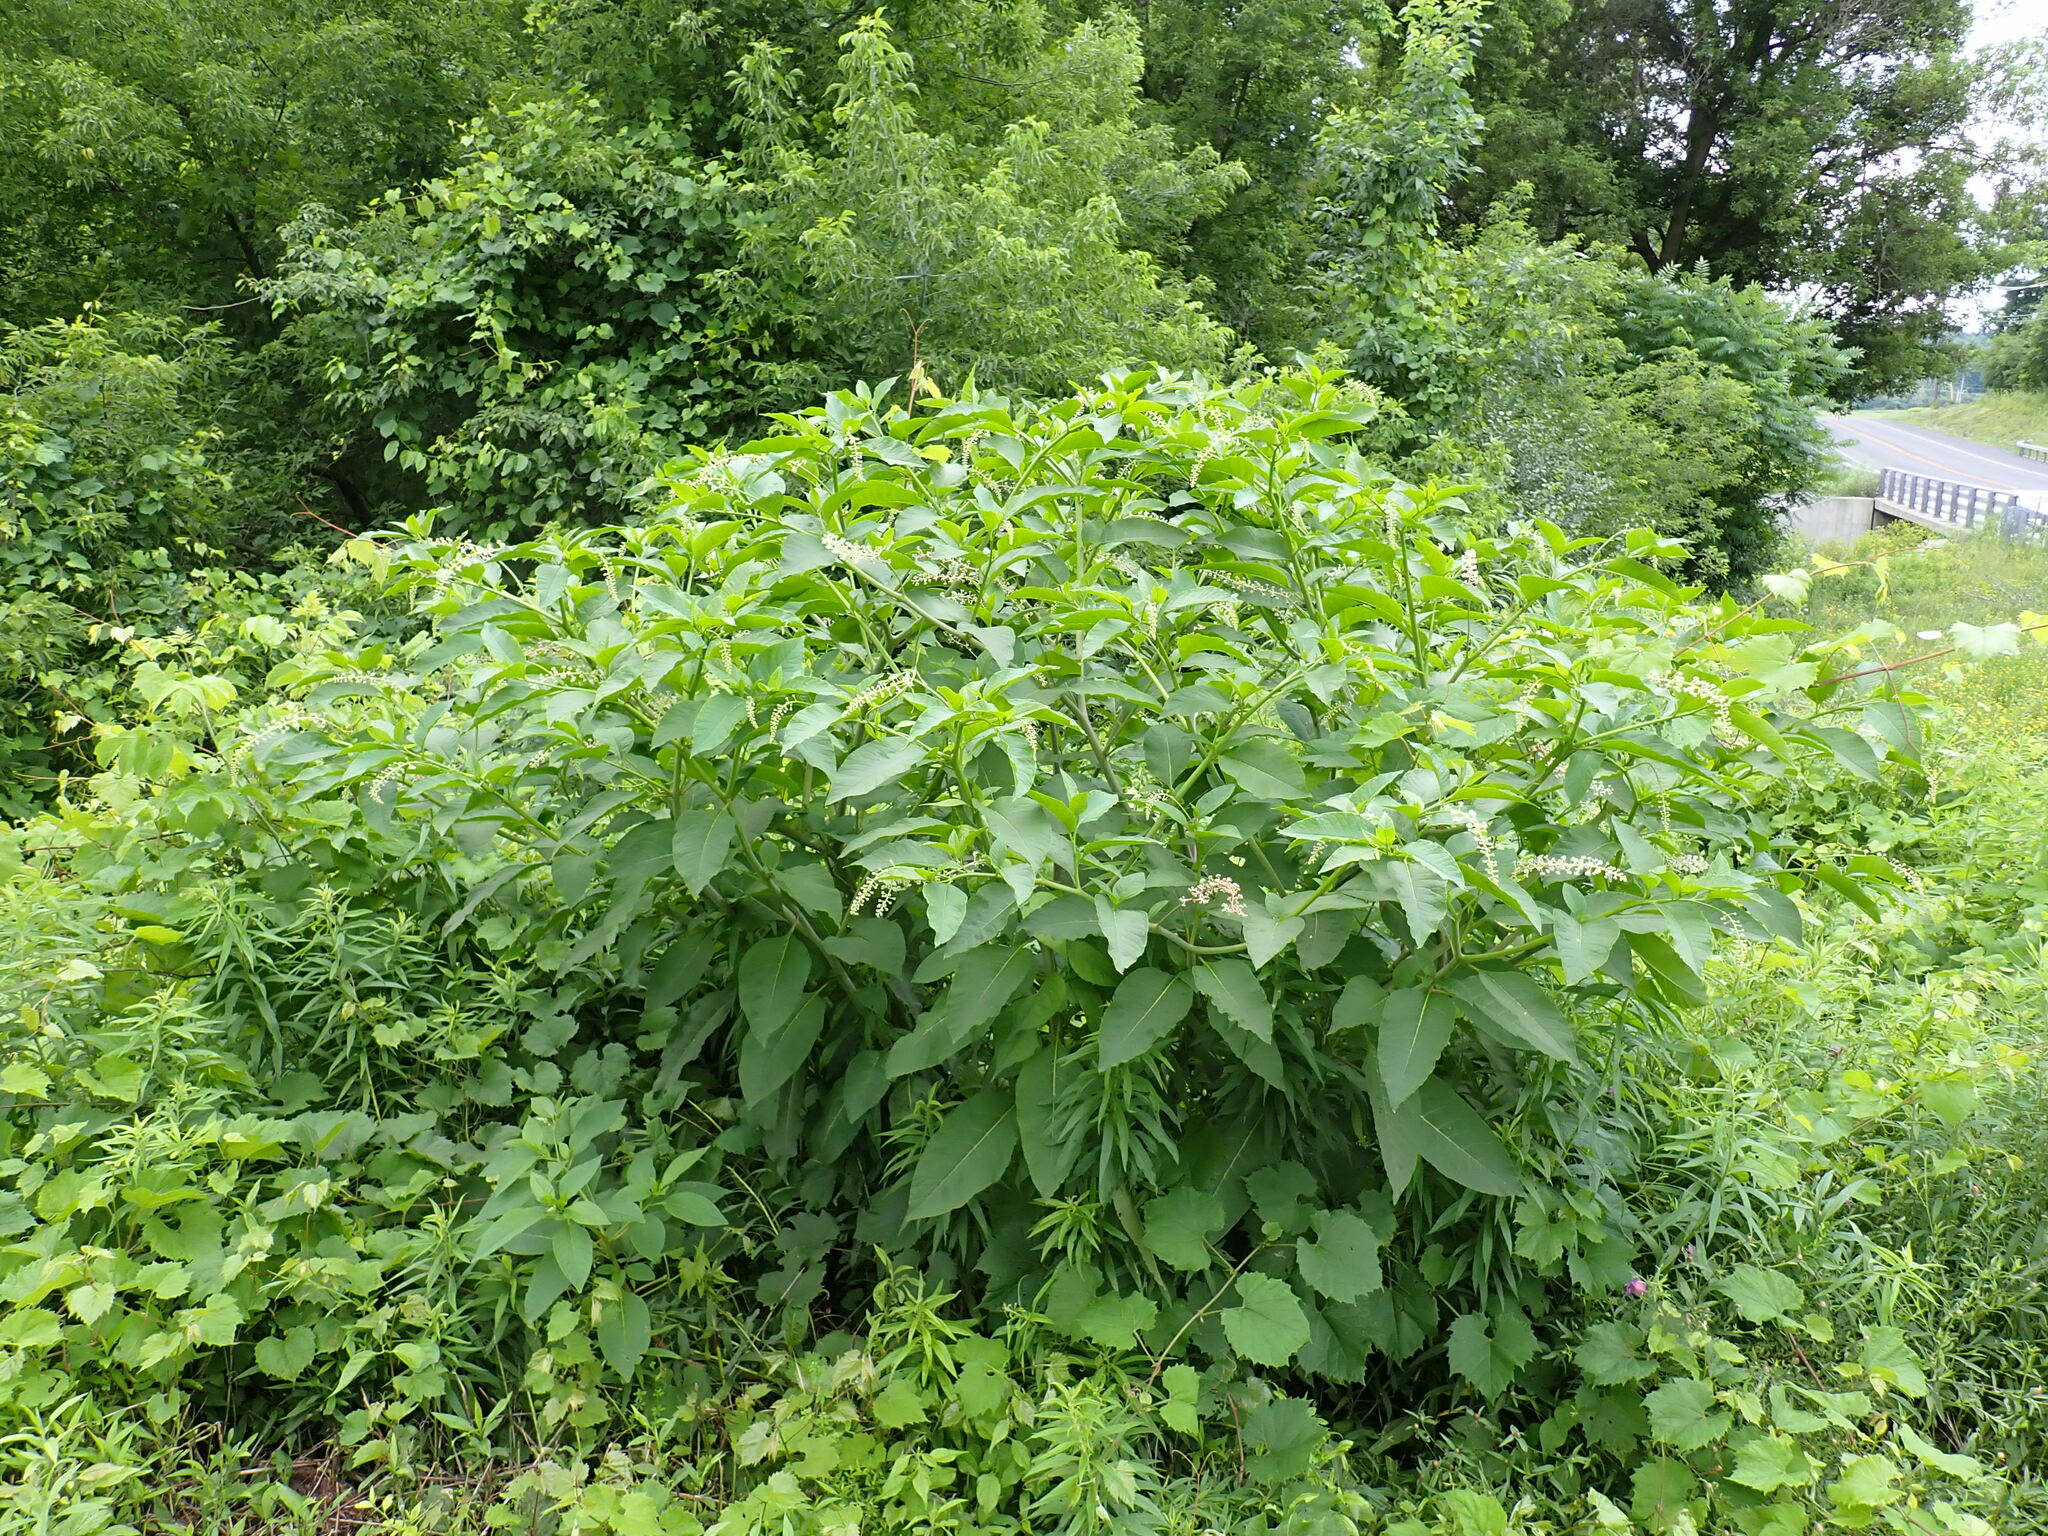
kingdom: Plantae
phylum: Tracheophyta
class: Magnoliopsida
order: Caryophyllales
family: Phytolaccaceae
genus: Phytolacca
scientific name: Phytolacca americana
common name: American pokeweed
